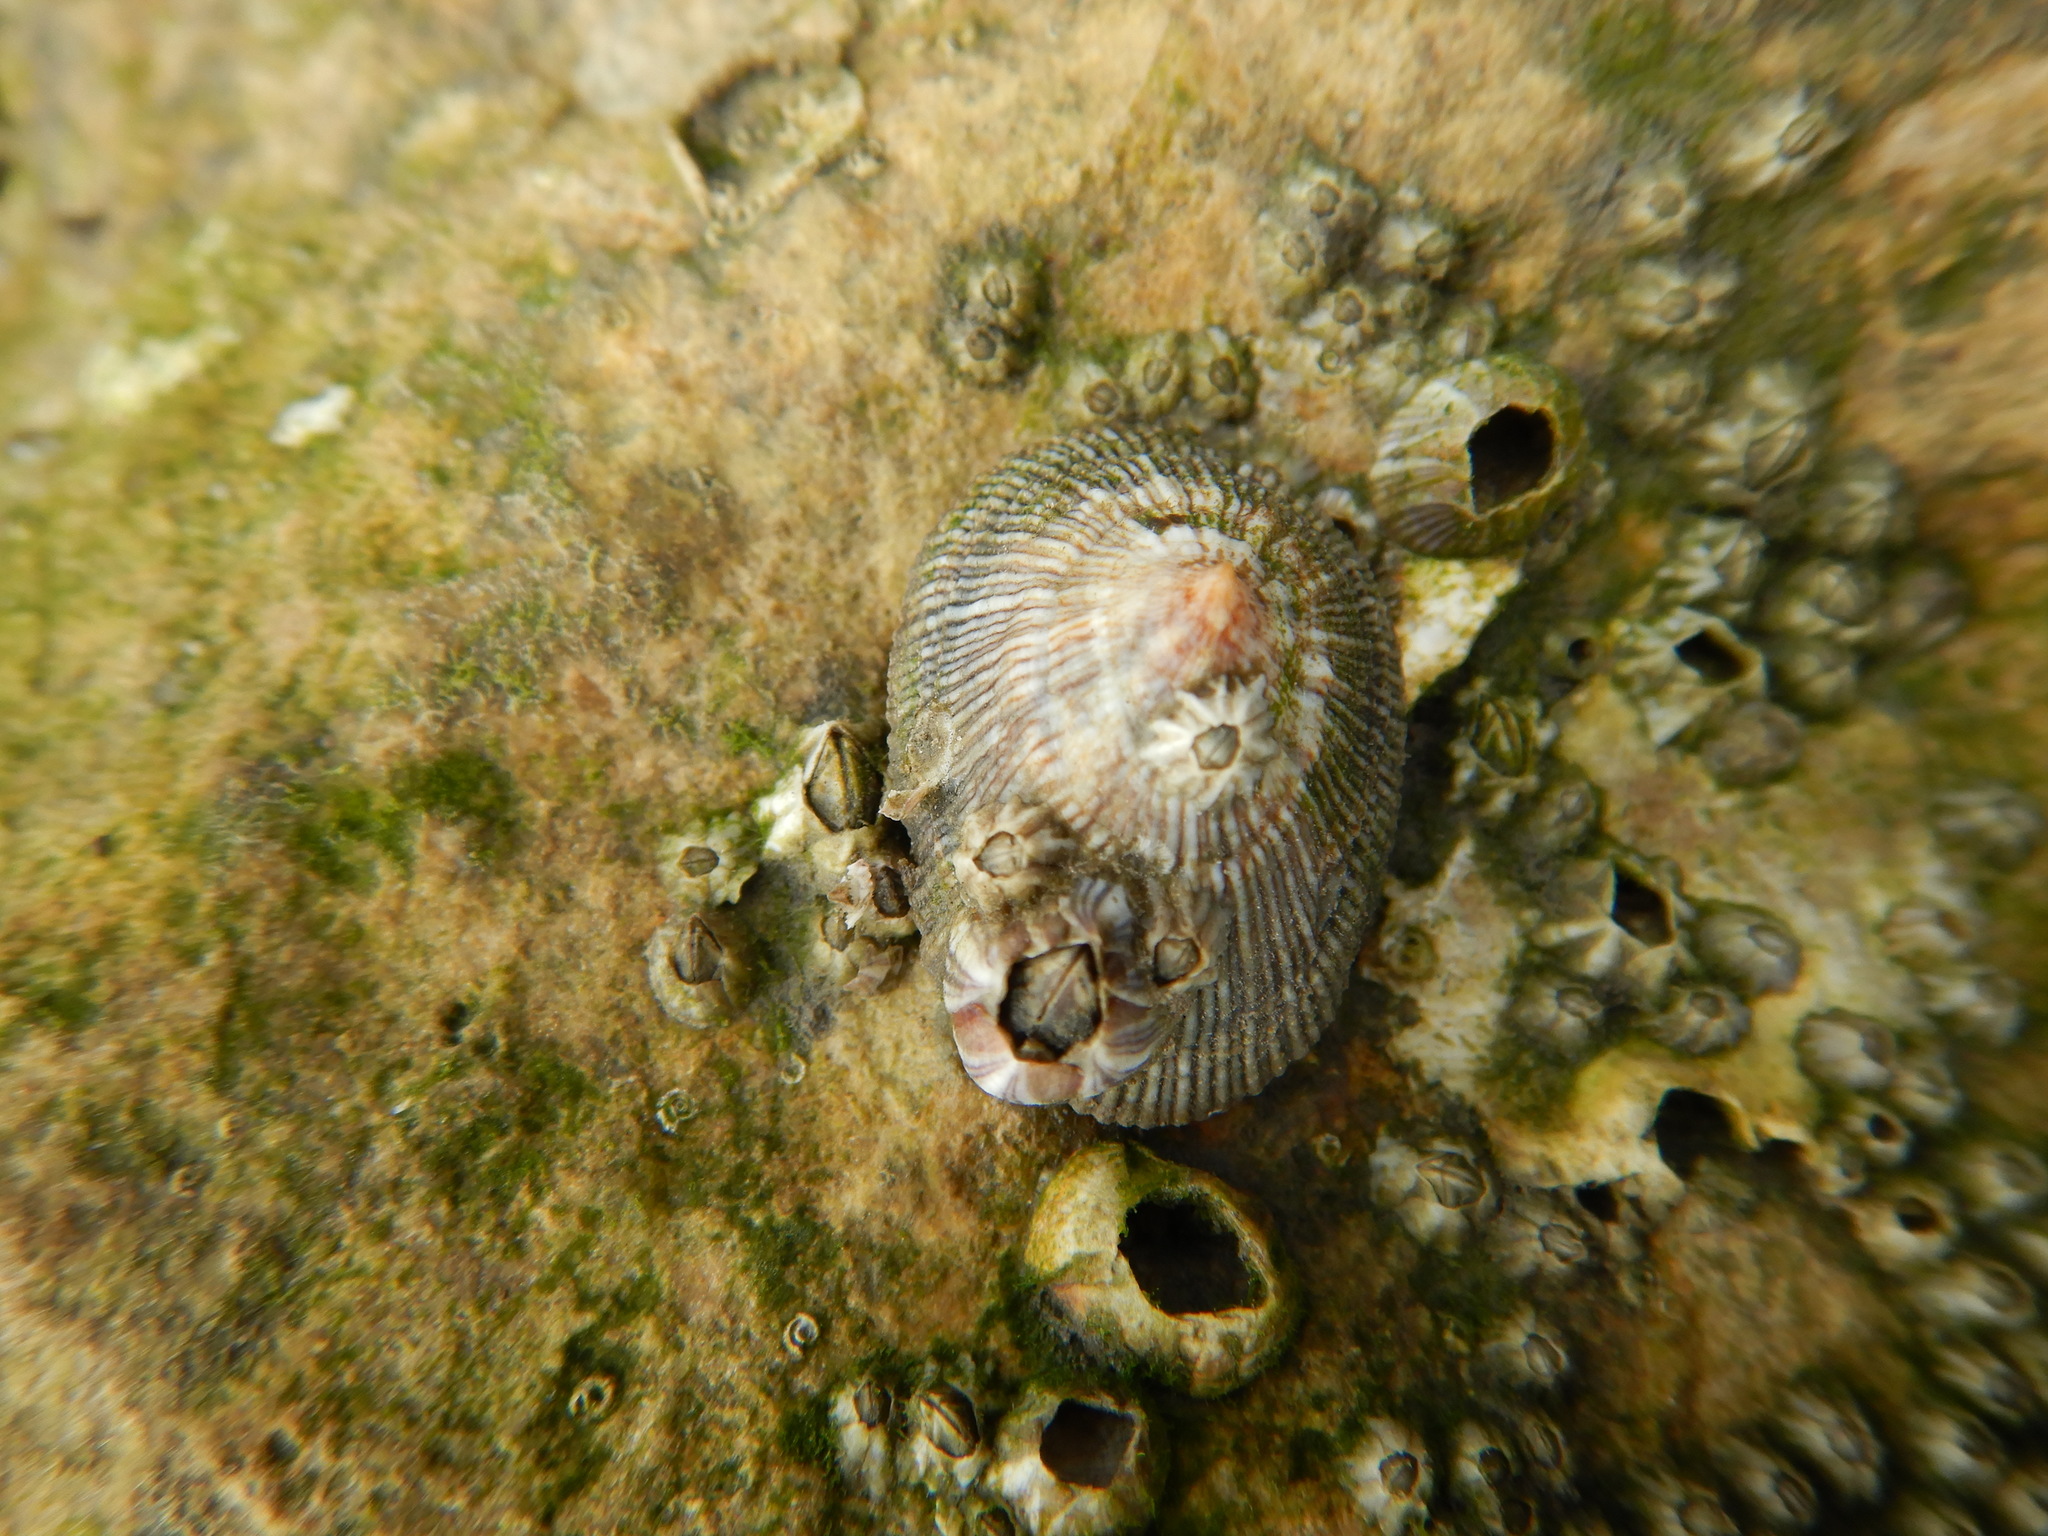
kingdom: Animalia
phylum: Mollusca
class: Gastropoda
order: Siphonariida
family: Siphonariidae
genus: Siphonaria
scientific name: Siphonaria pectinata
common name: Striped false limpet
